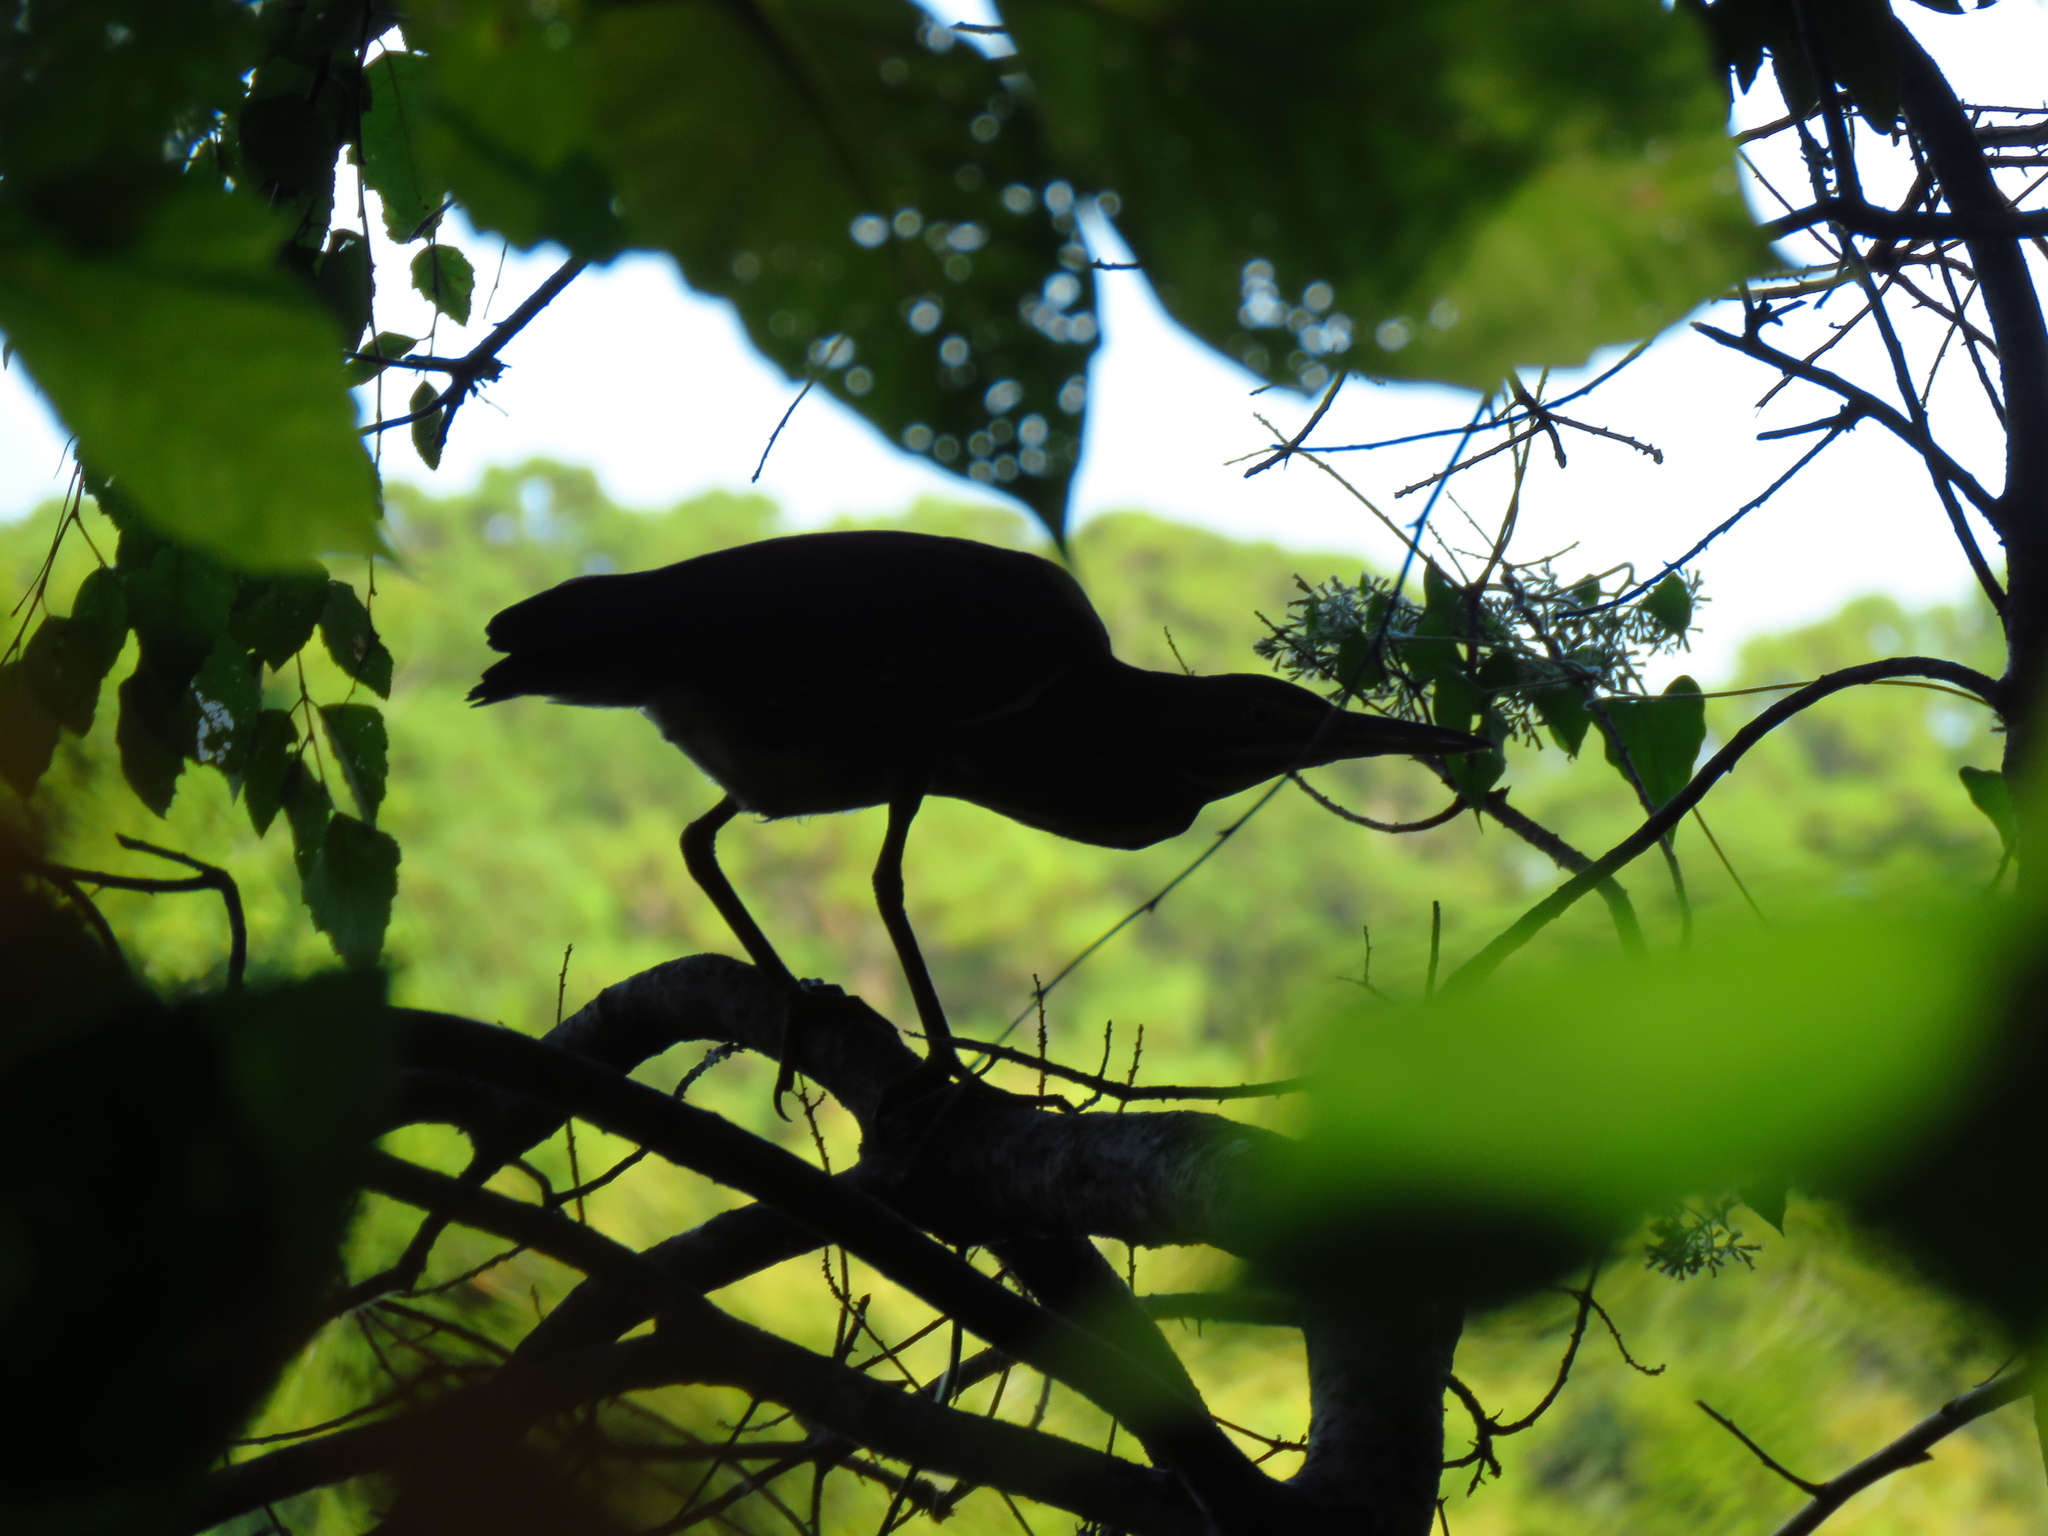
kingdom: Animalia
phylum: Chordata
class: Aves
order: Pelecaniformes
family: Ardeidae
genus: Butorides
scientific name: Butorides virescens
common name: Green heron
